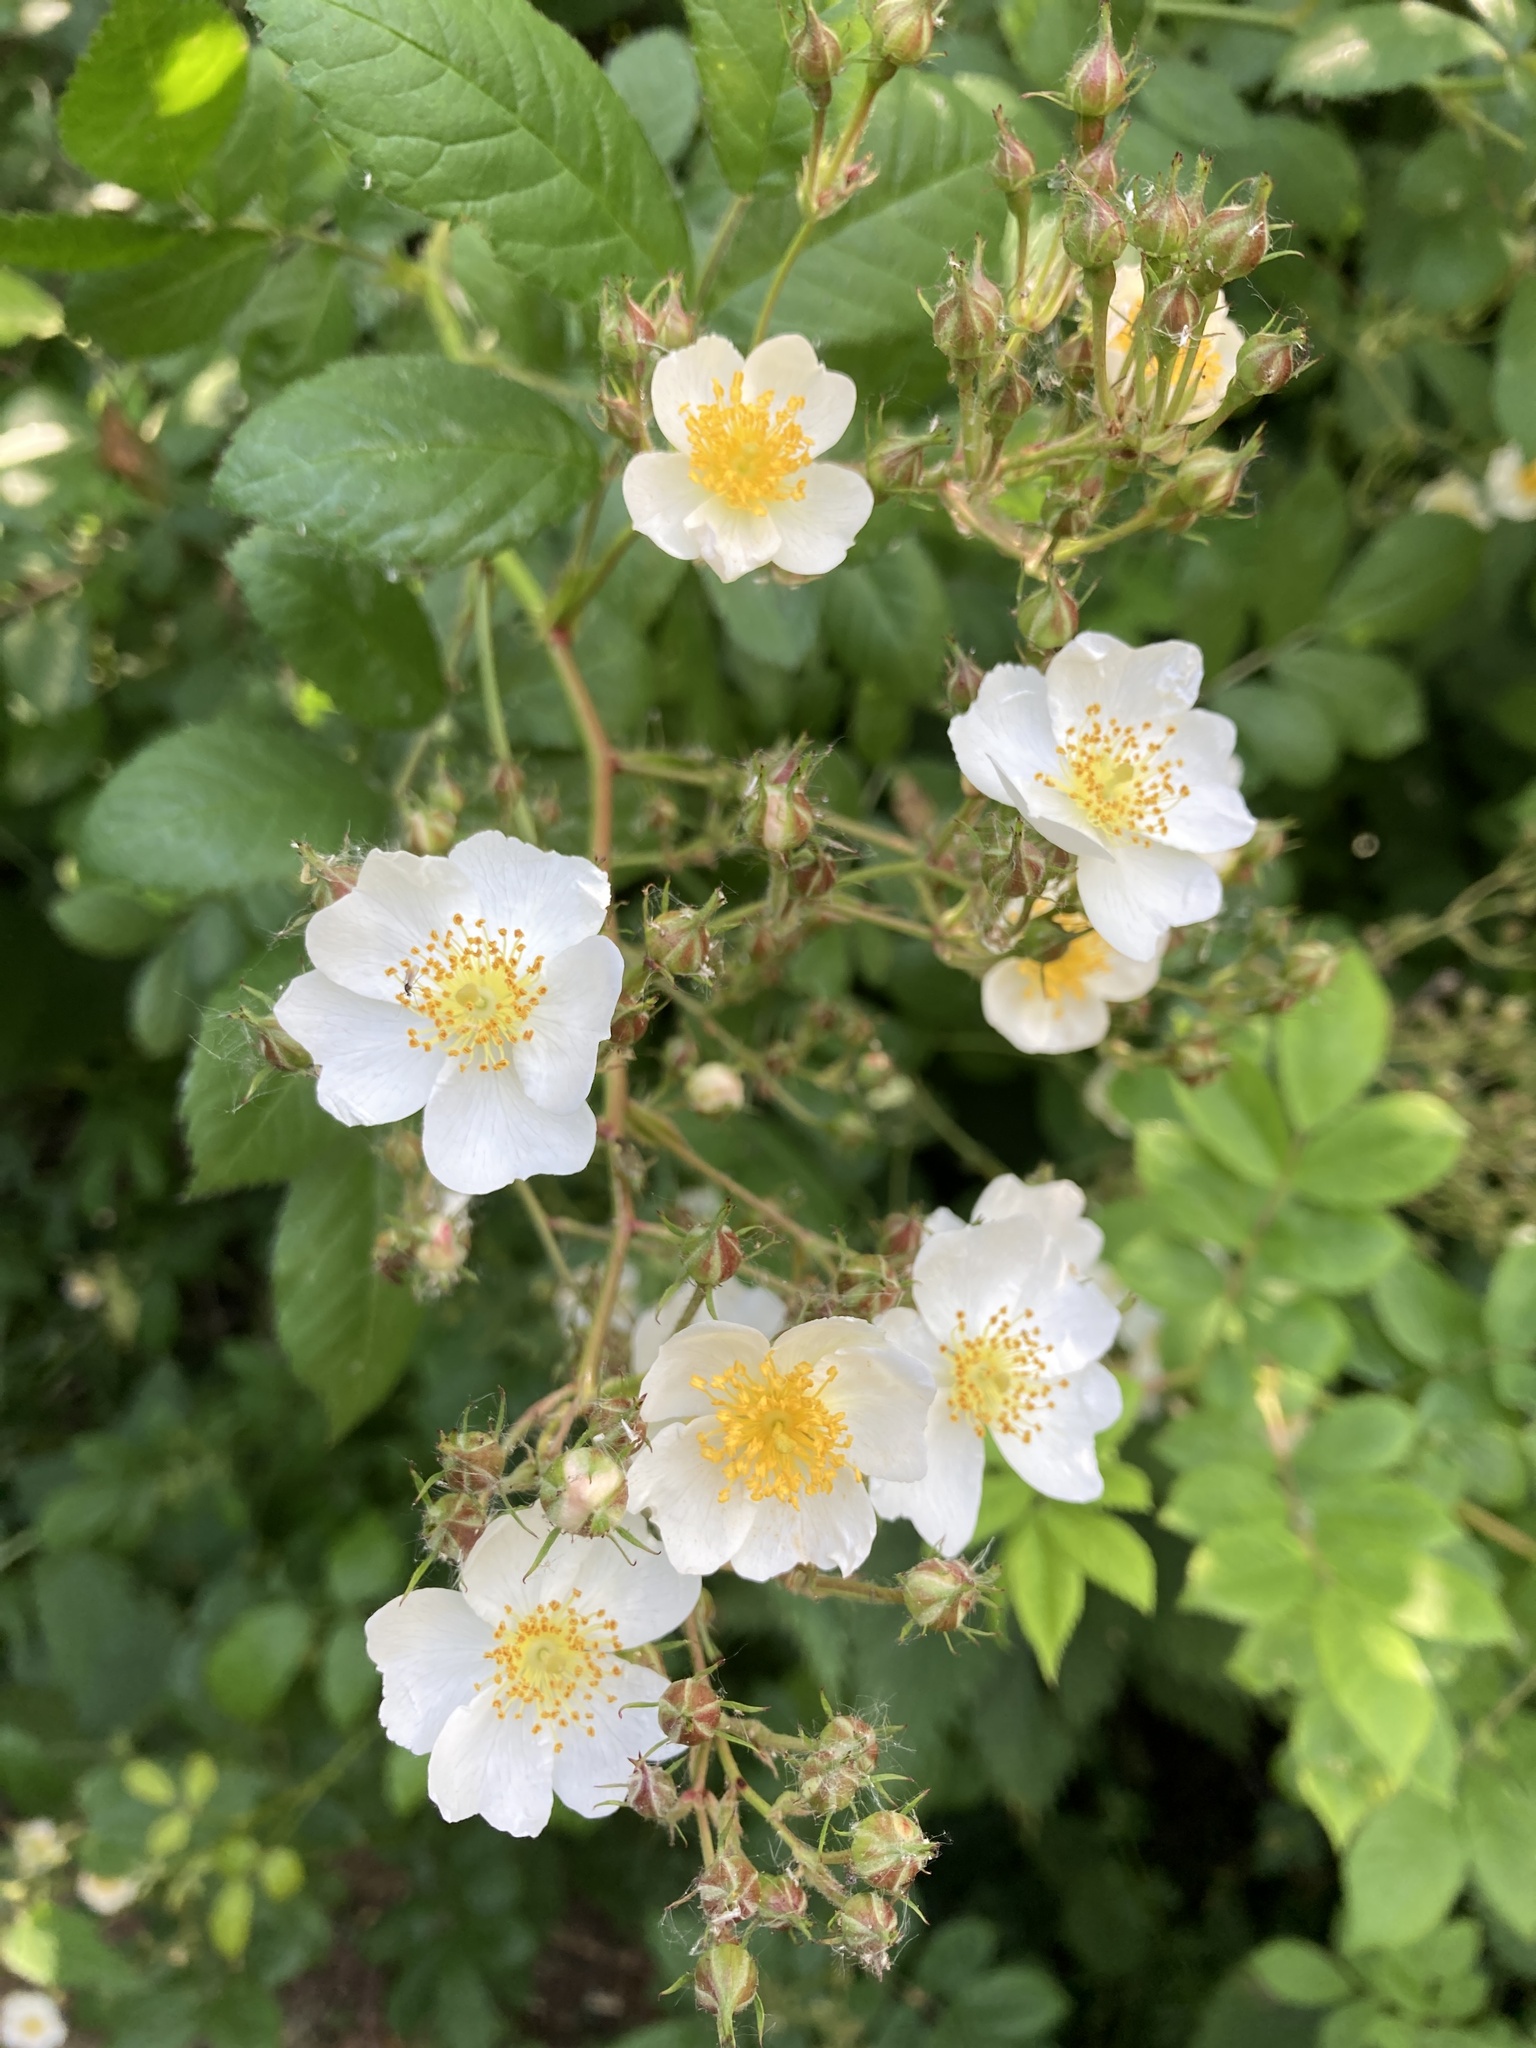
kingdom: Plantae
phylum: Tracheophyta
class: Magnoliopsida
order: Rosales
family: Rosaceae
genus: Rosa
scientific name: Rosa multiflora
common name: Multiflora rose
